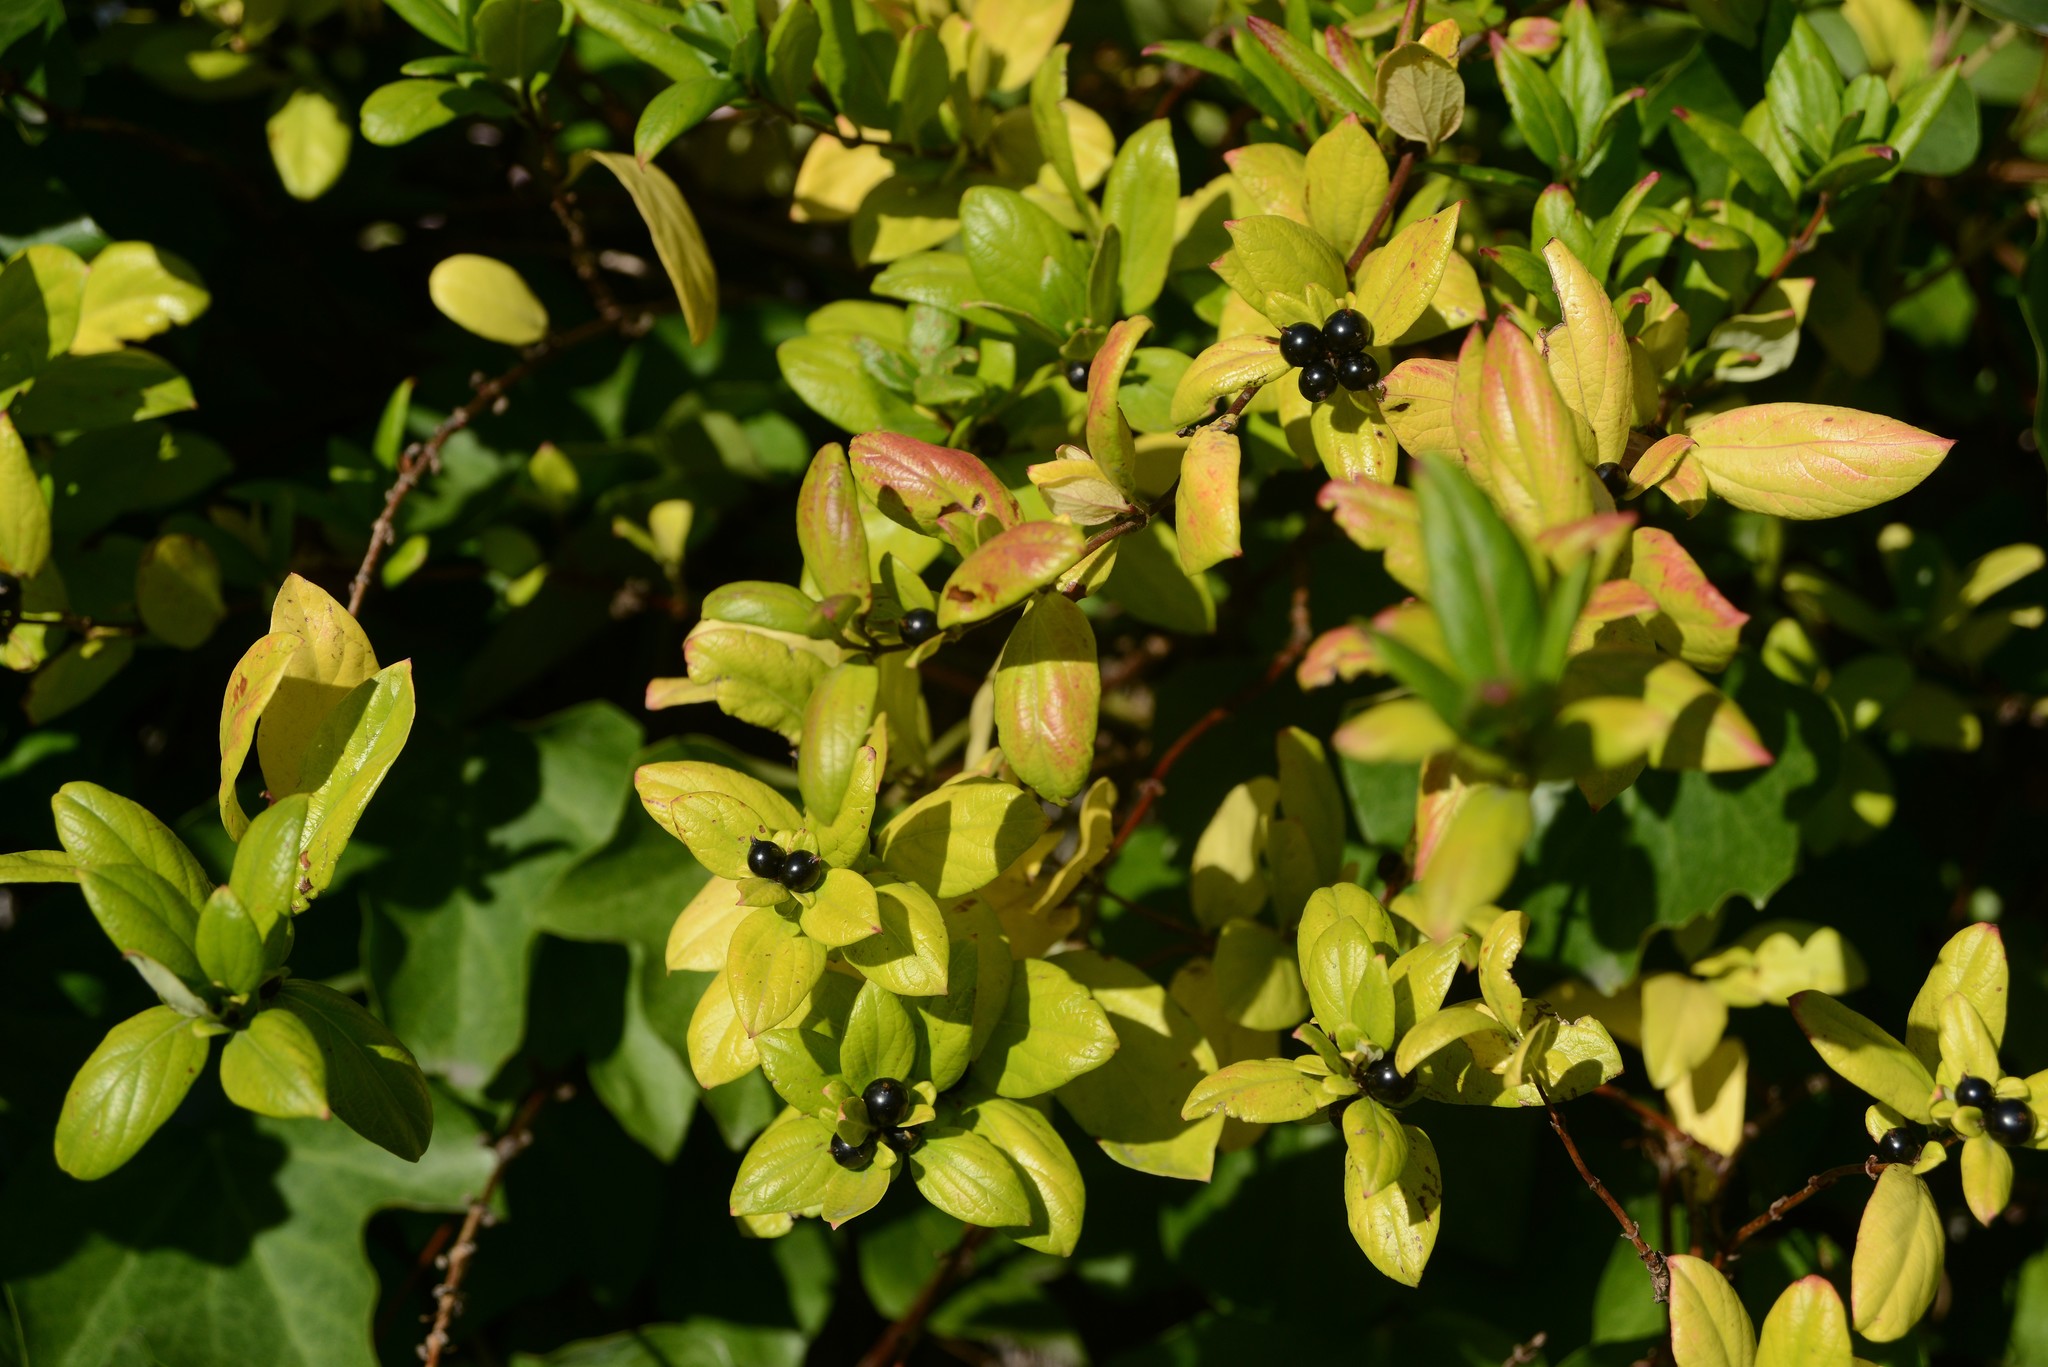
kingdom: Plantae
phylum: Tracheophyta
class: Magnoliopsida
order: Dipsacales
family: Caprifoliaceae
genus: Lonicera
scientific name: Lonicera japonica
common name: Japanese honeysuckle
